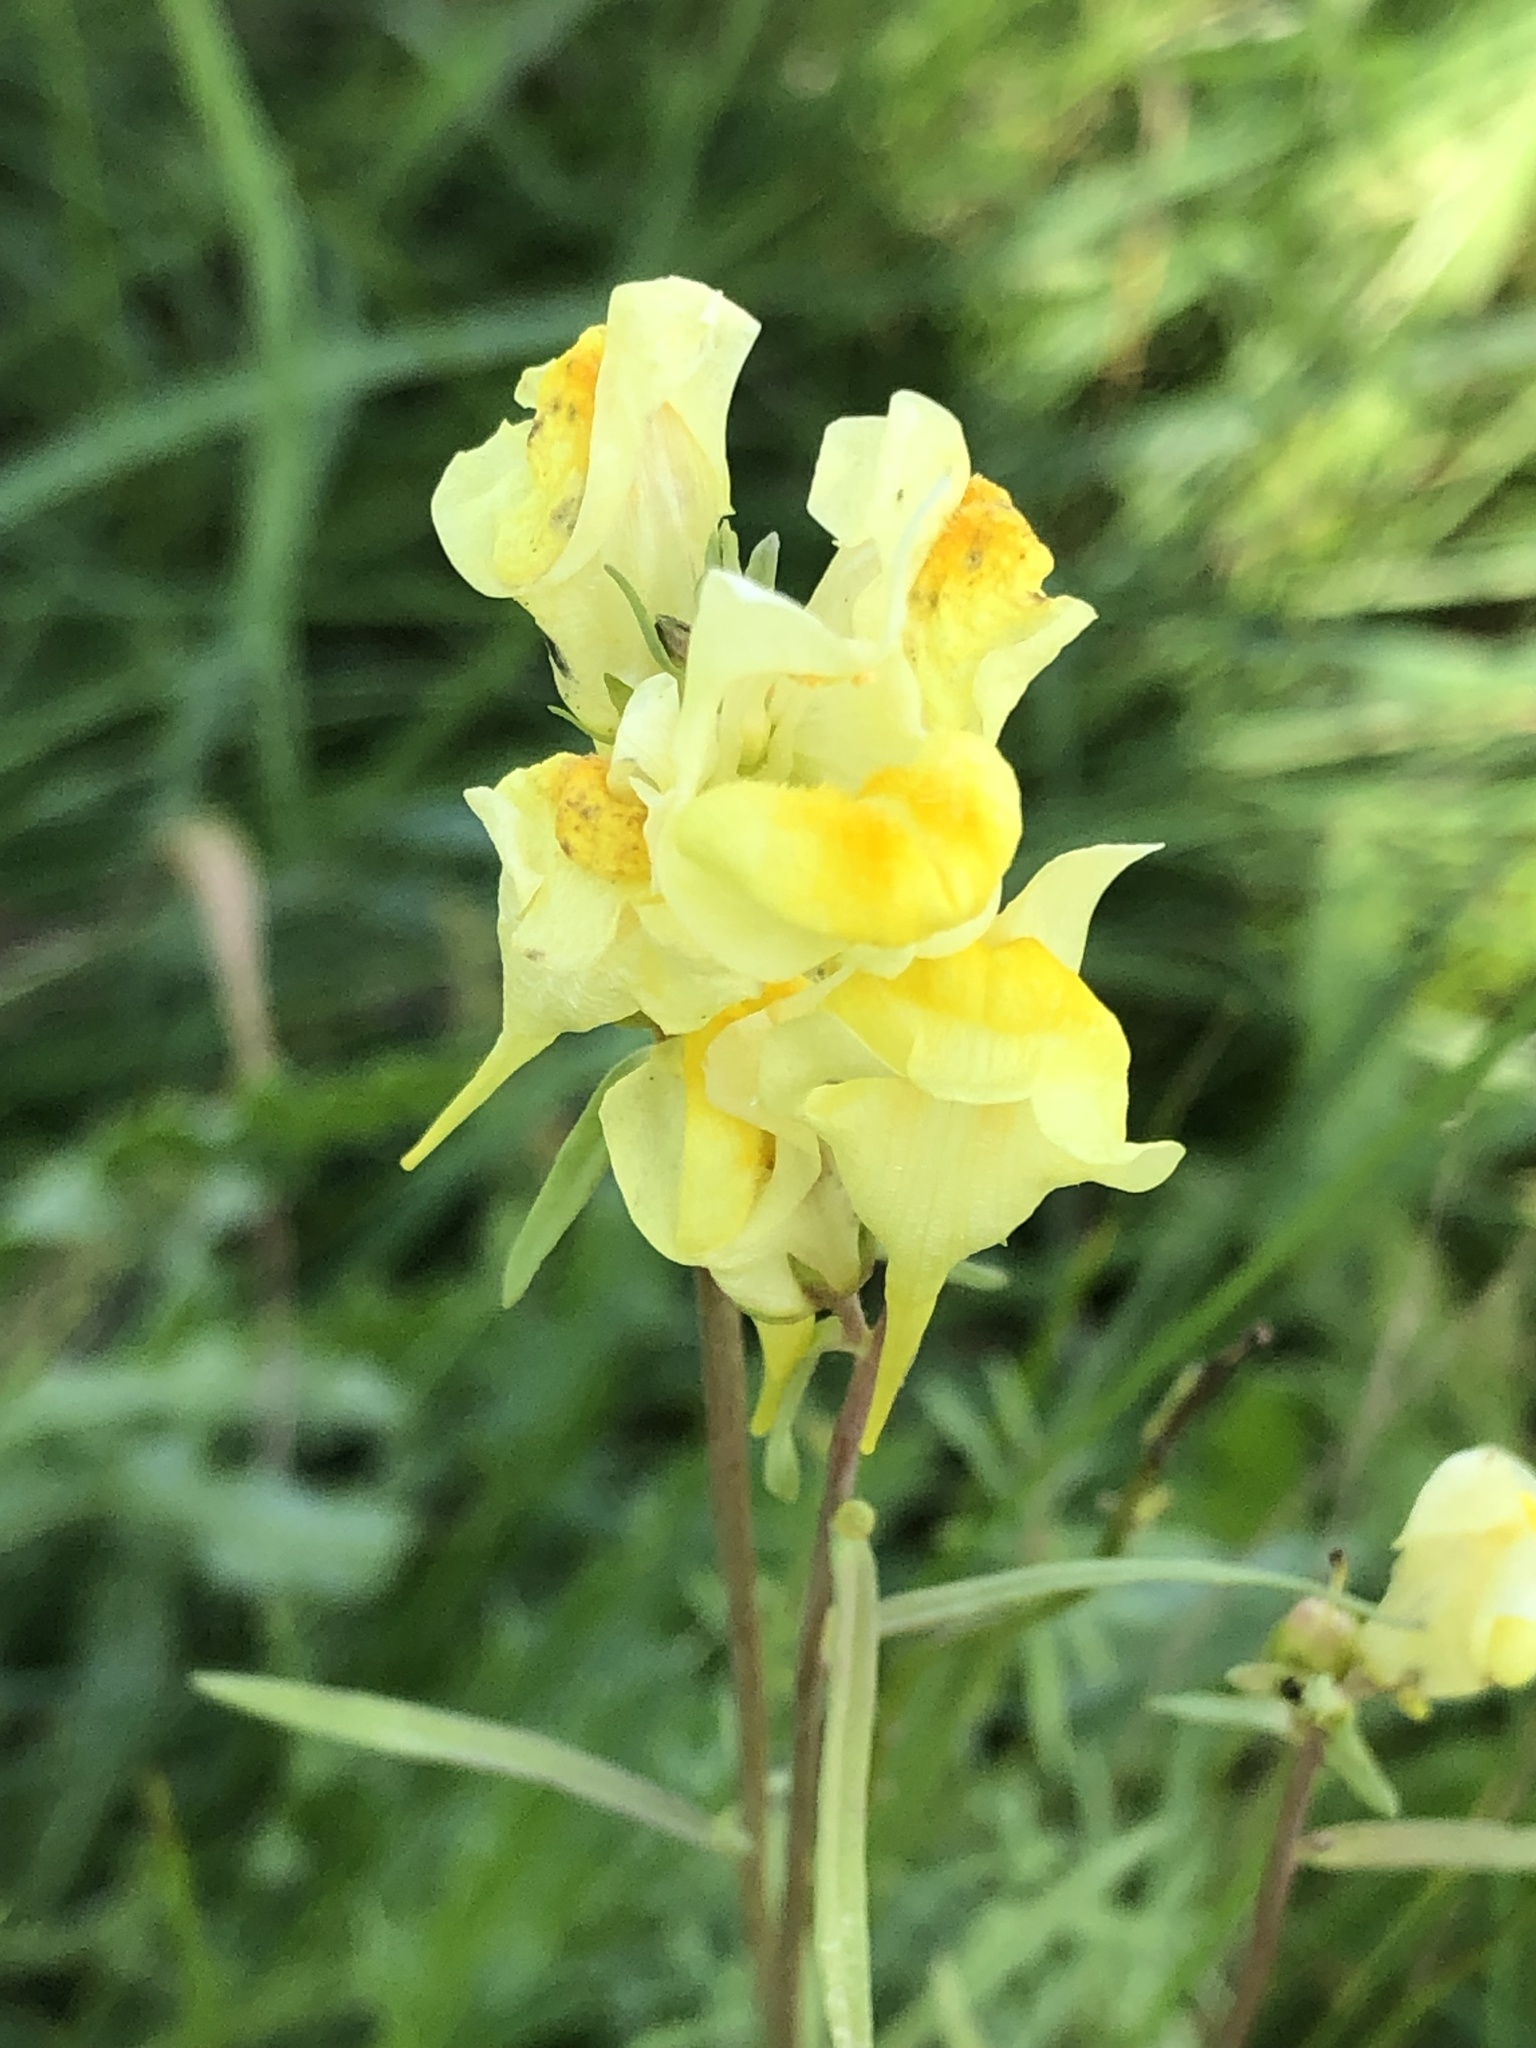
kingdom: Plantae
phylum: Tracheophyta
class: Magnoliopsida
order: Lamiales
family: Plantaginaceae
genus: Linaria
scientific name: Linaria vulgaris
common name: Butter and eggs
